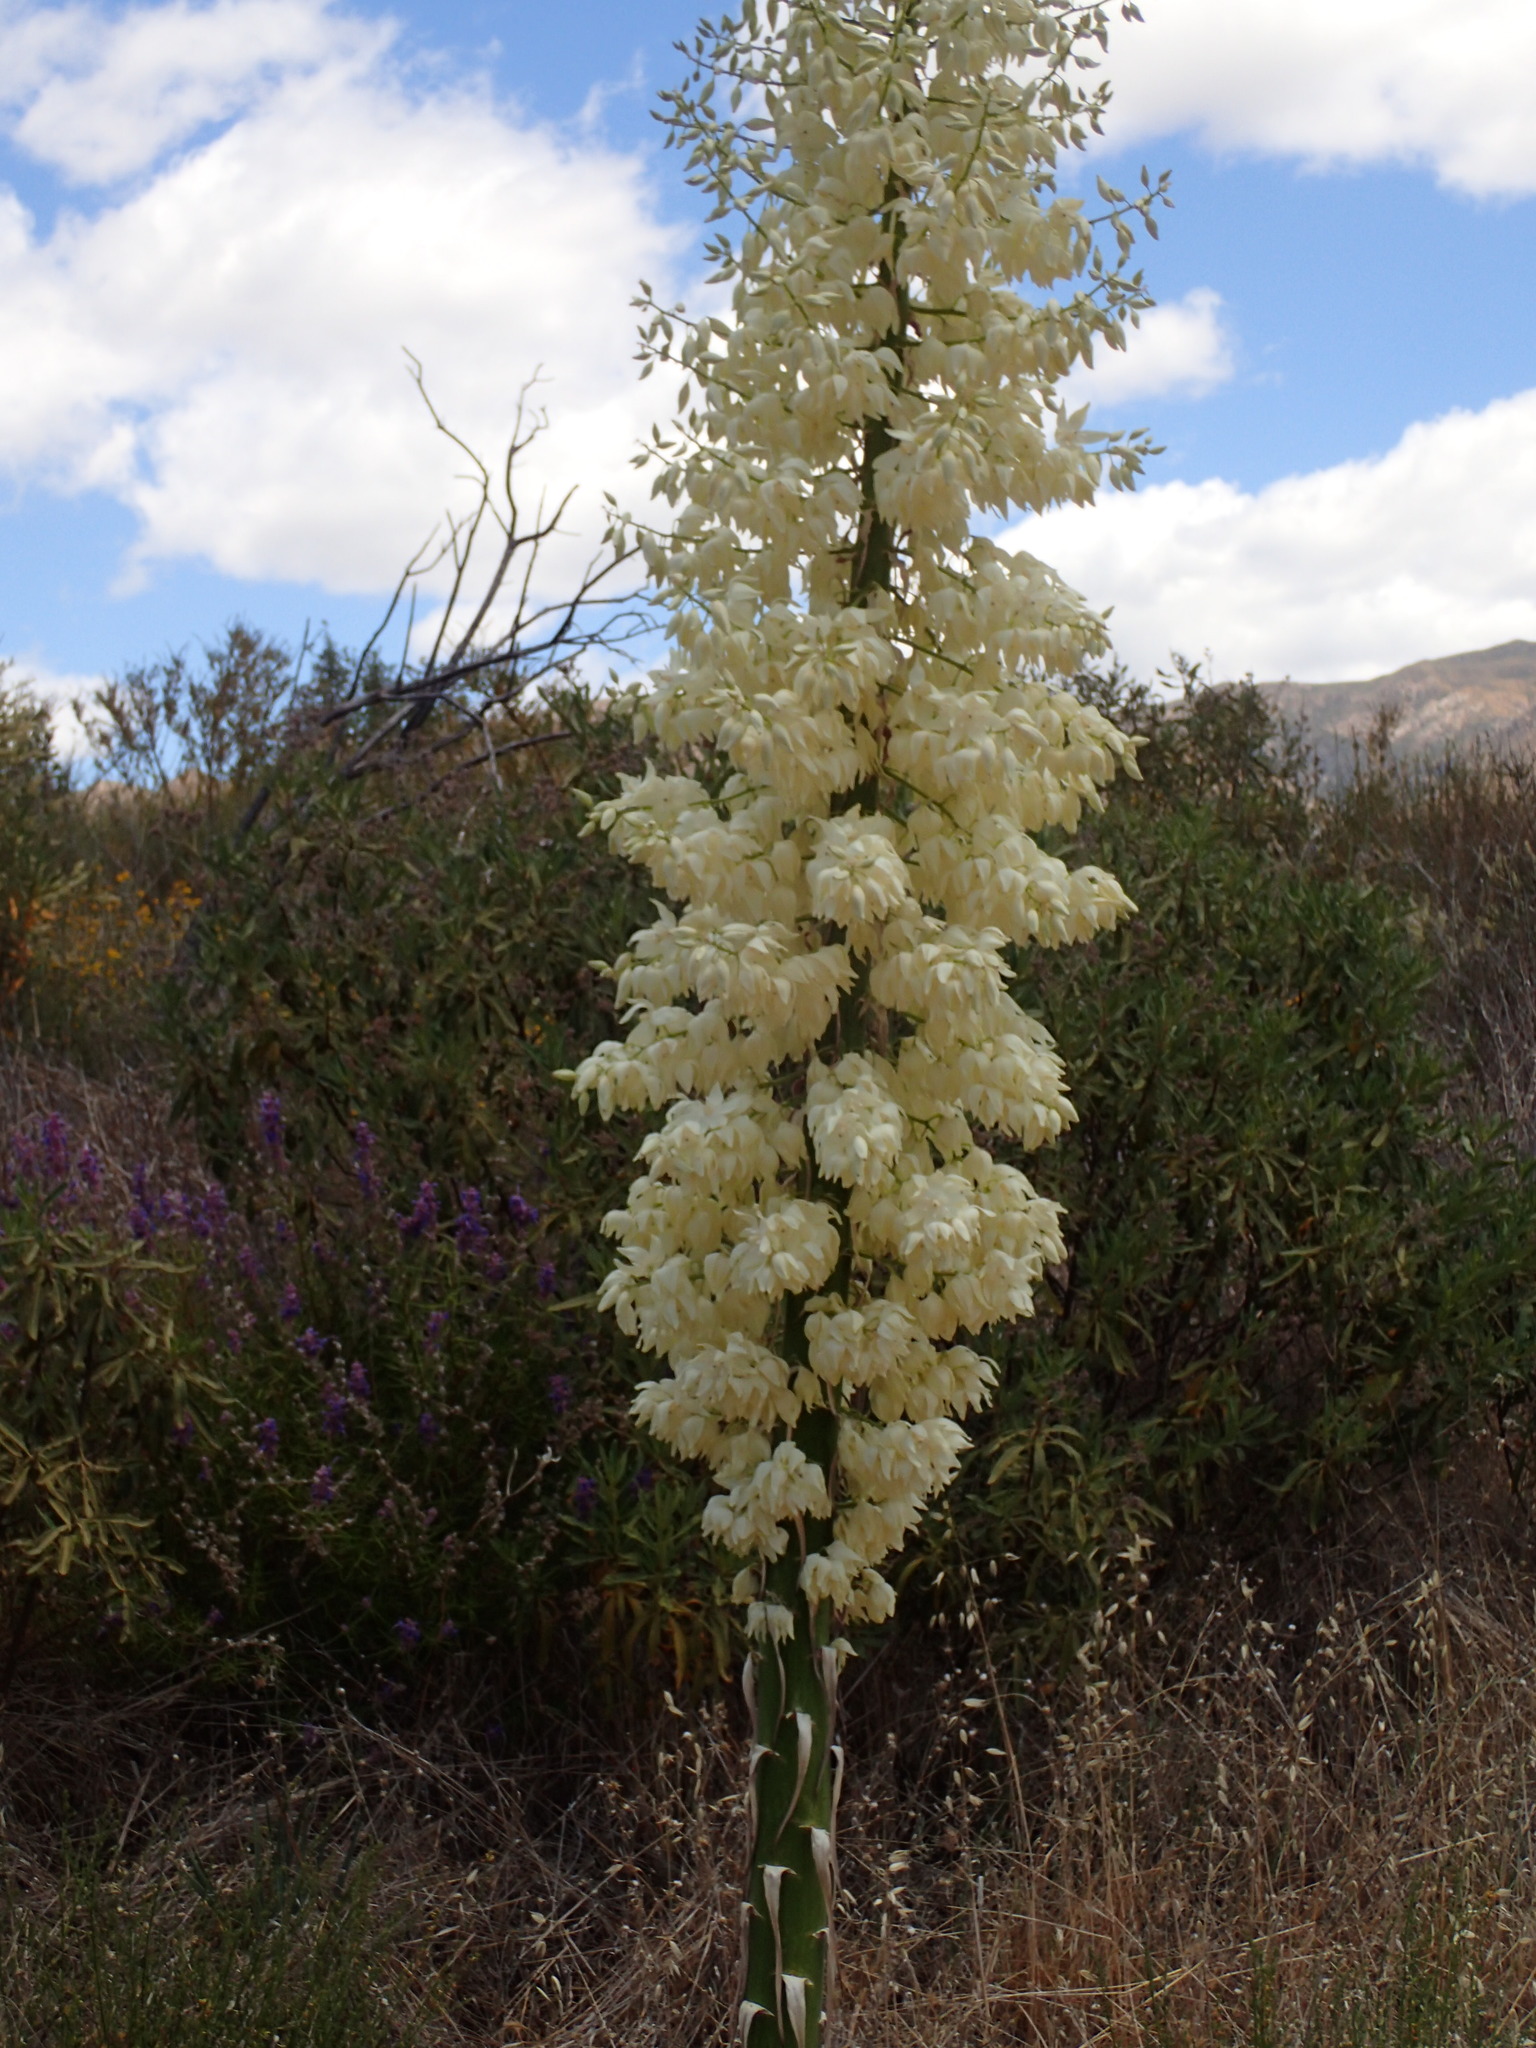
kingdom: Plantae
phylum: Tracheophyta
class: Liliopsida
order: Asparagales
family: Asparagaceae
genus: Hesperoyucca
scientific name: Hesperoyucca whipplei
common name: Our lord's-candle
